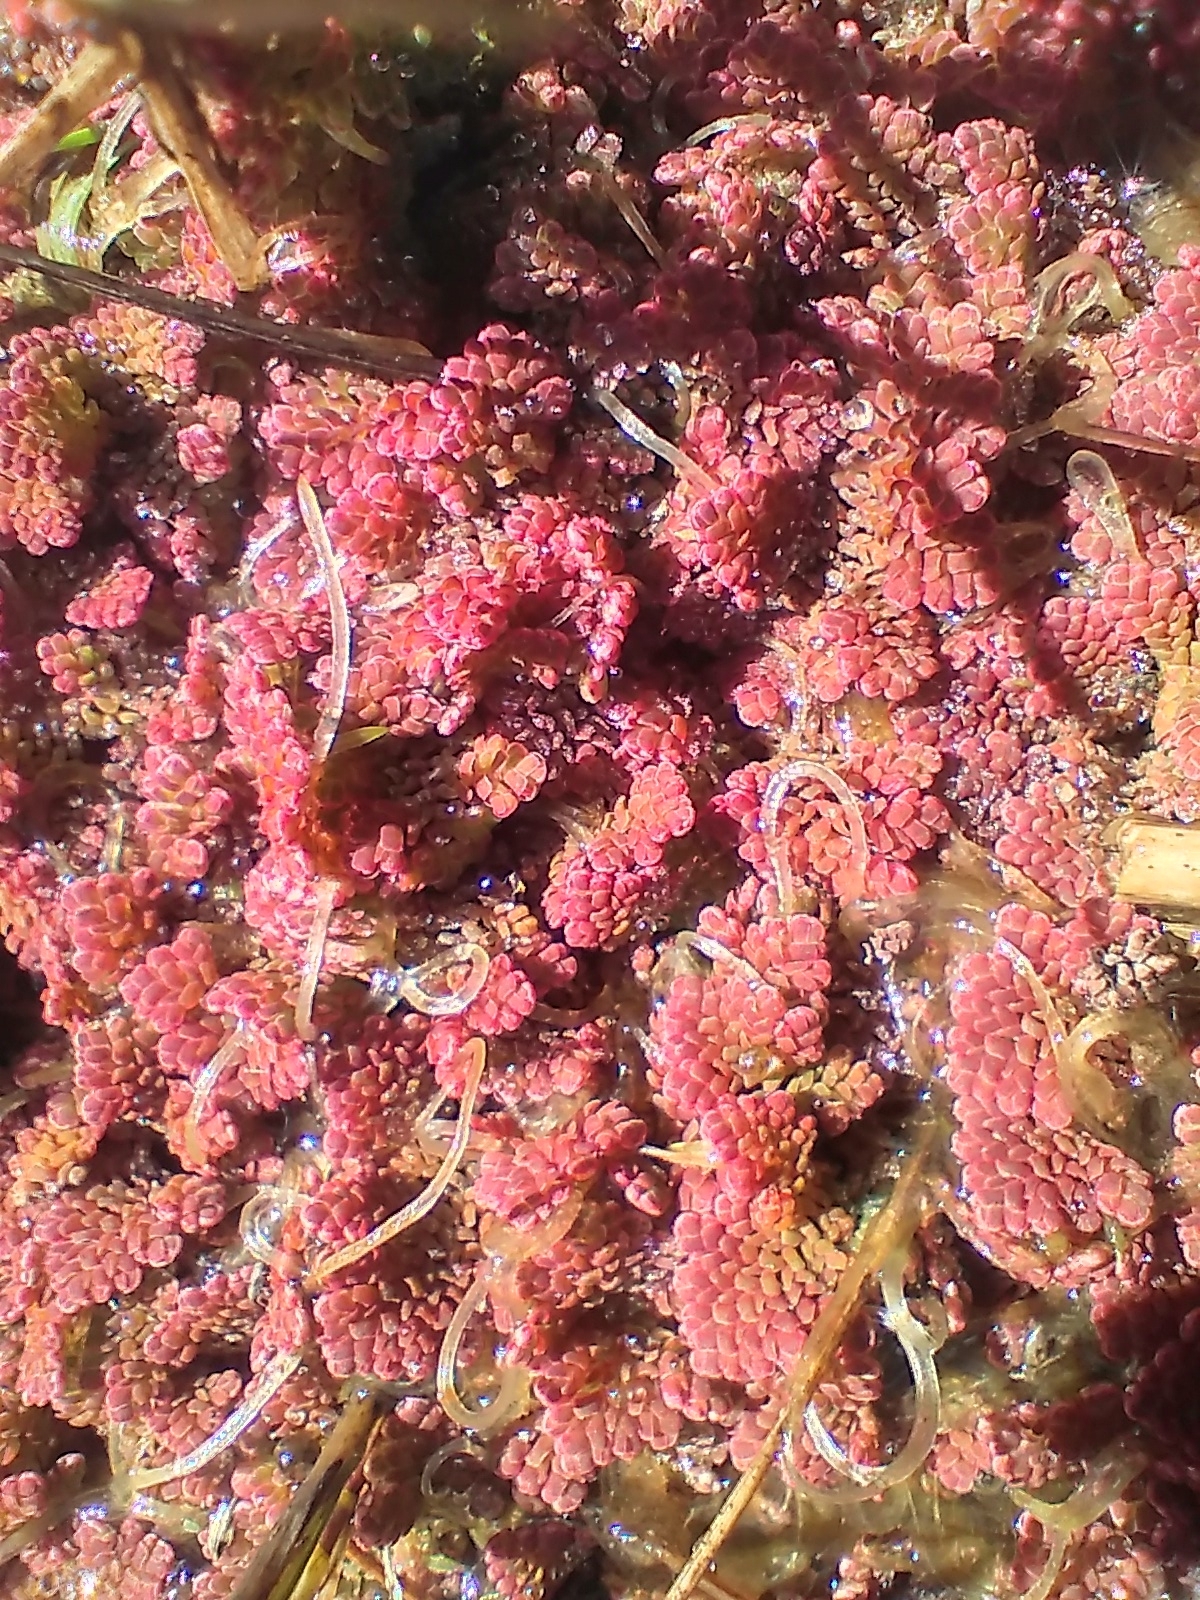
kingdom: Plantae
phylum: Tracheophyta
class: Polypodiopsida
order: Salviniales
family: Salviniaceae
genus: Azolla
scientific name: Azolla rubra
